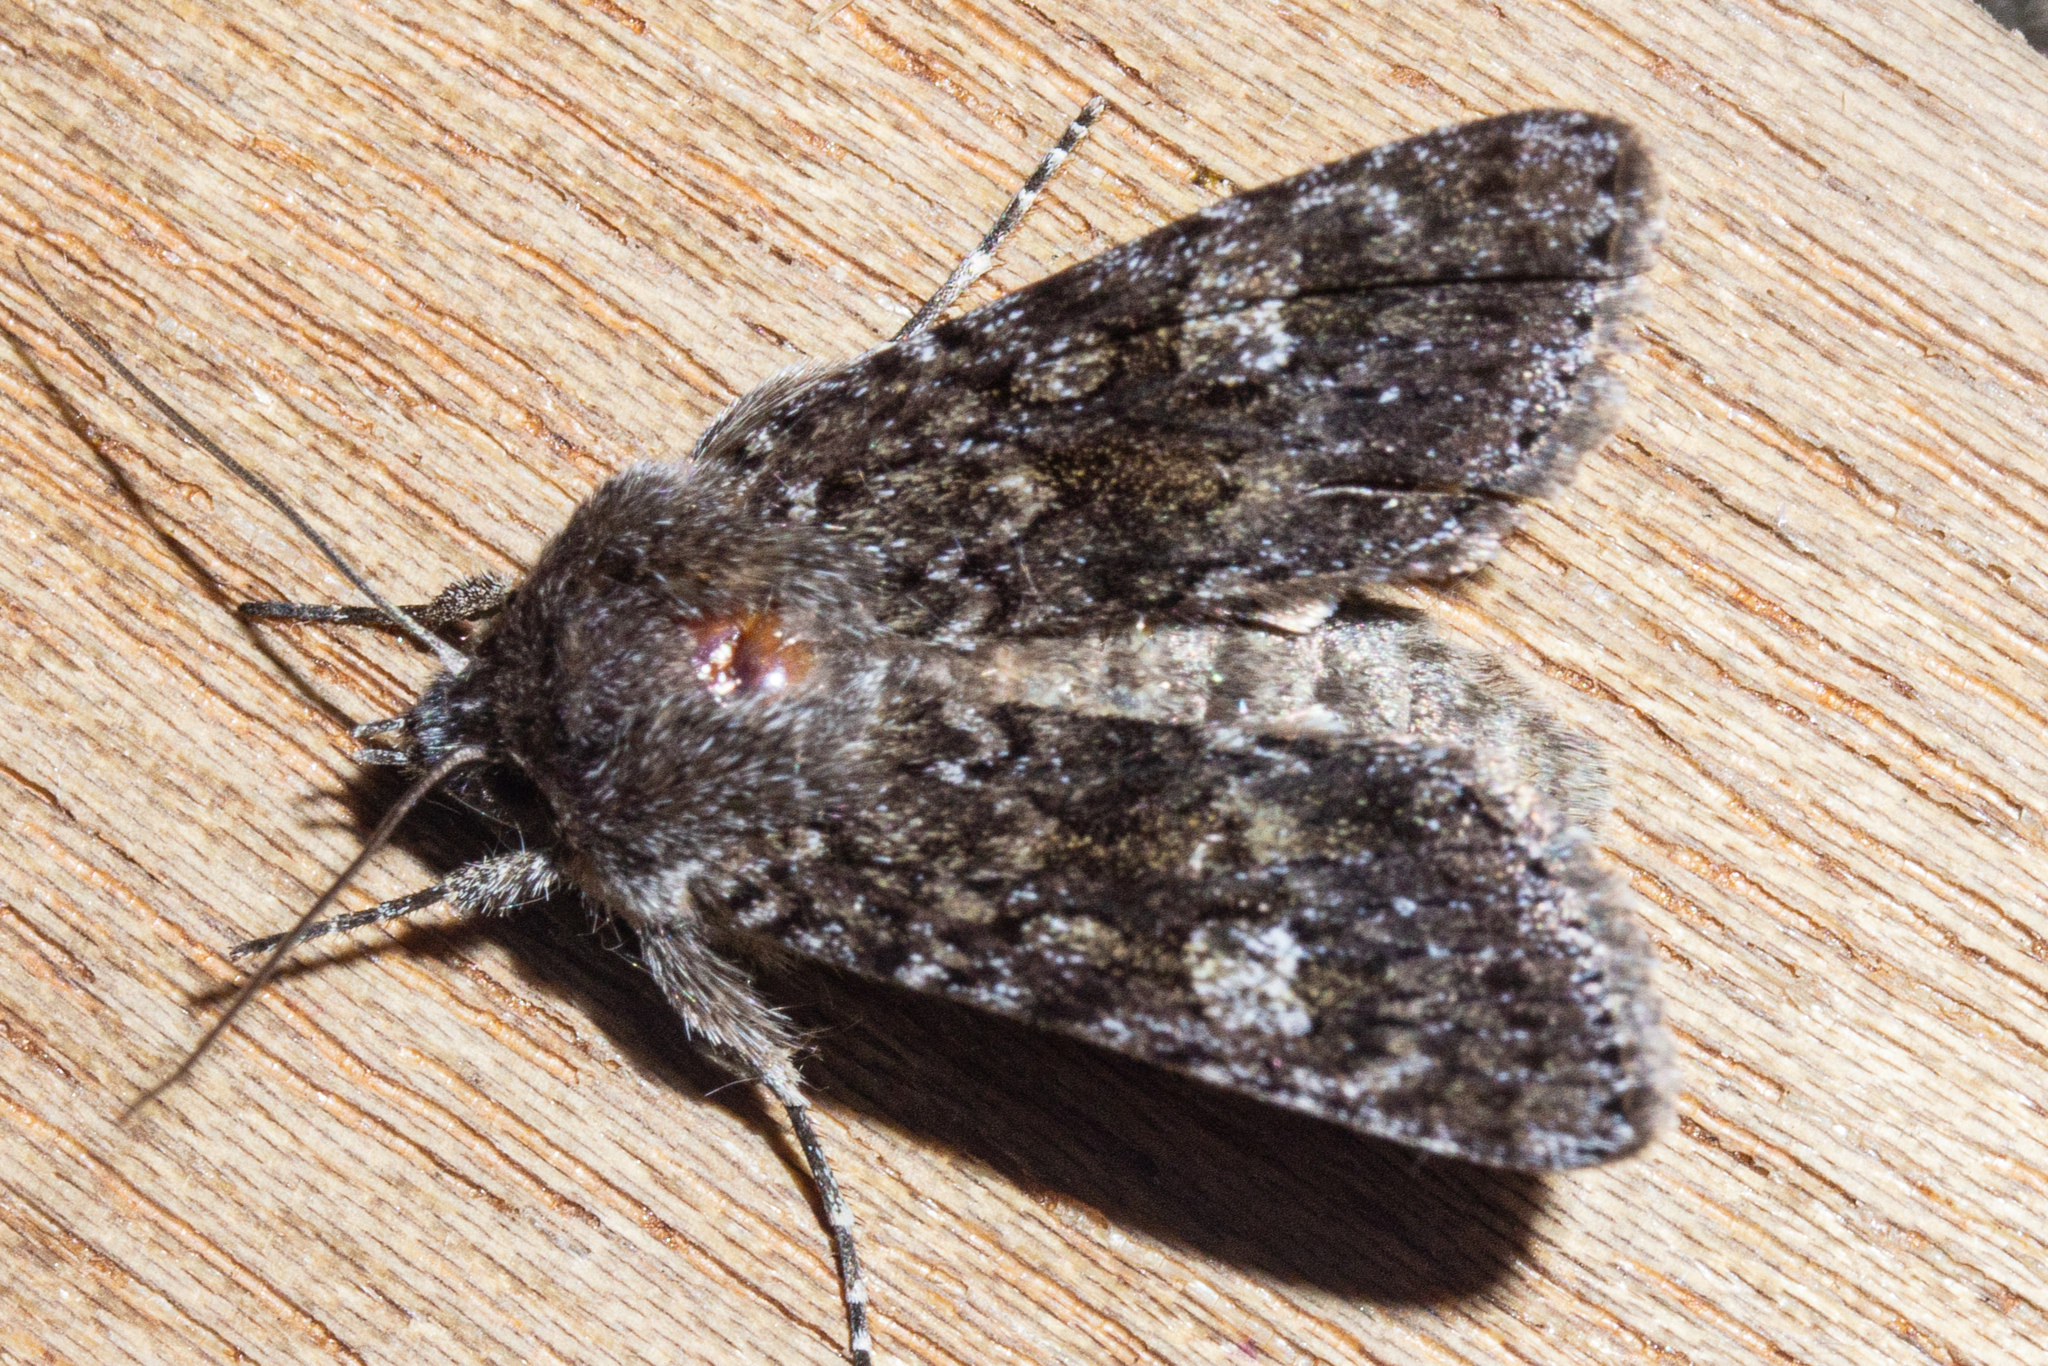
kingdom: Animalia
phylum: Arthropoda
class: Insecta
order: Lepidoptera
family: Noctuidae
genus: Physetica
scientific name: Physetica
